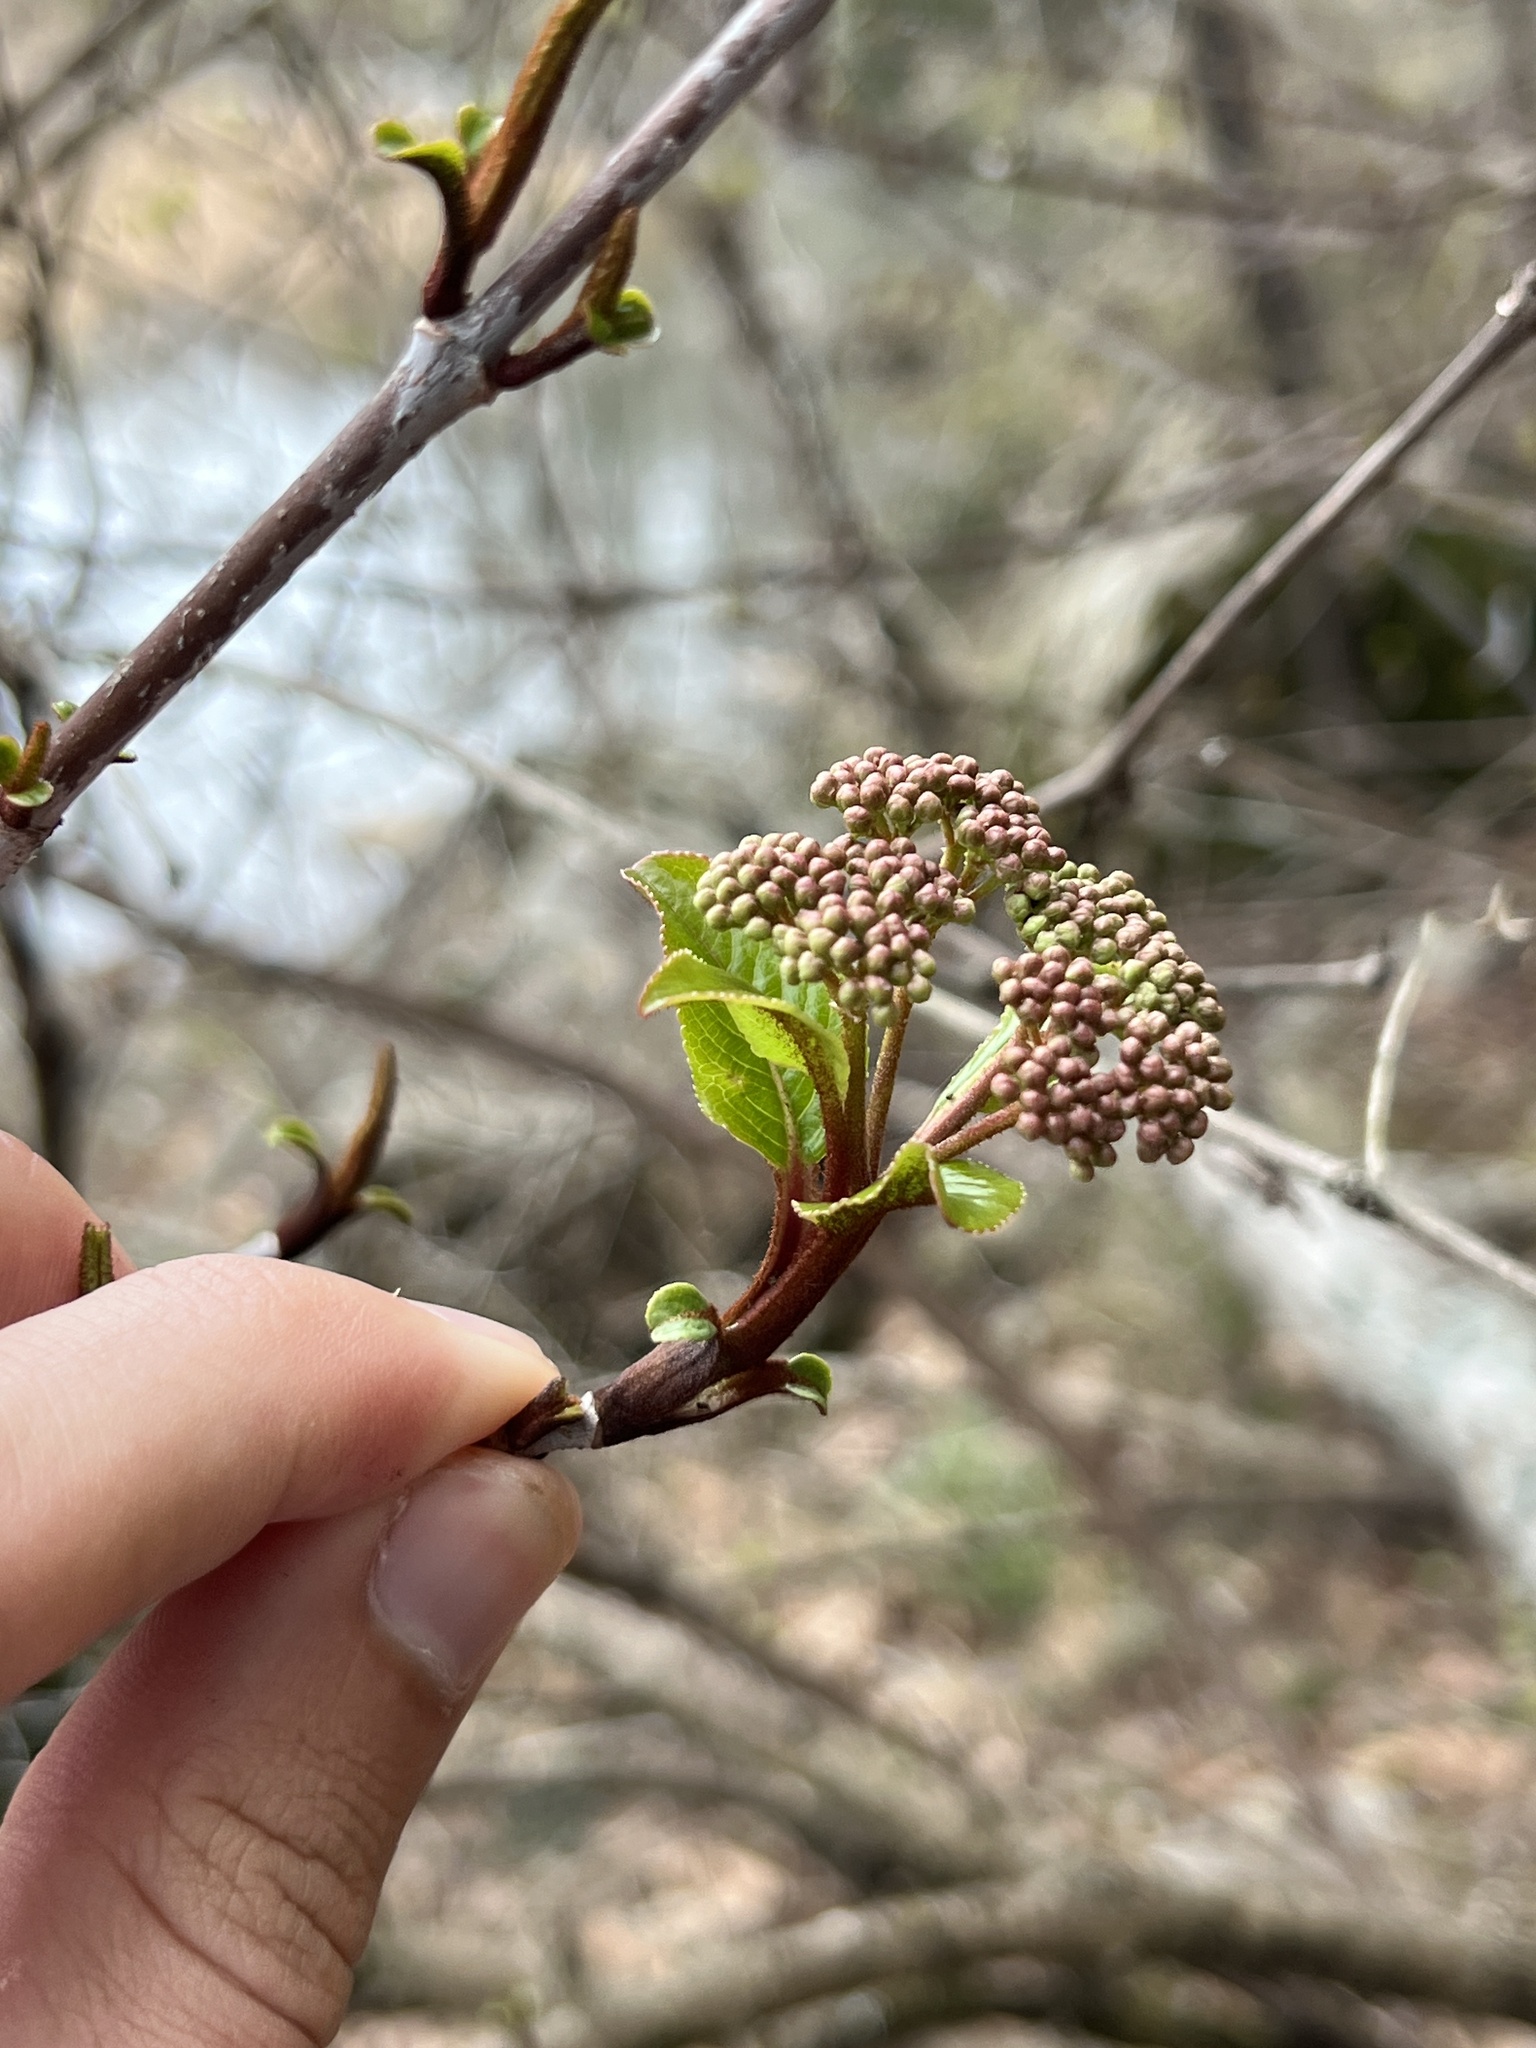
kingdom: Plantae
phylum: Tracheophyta
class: Magnoliopsida
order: Dipsacales
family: Viburnaceae
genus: Viburnum
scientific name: Viburnum rufidulum
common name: Blue haw
